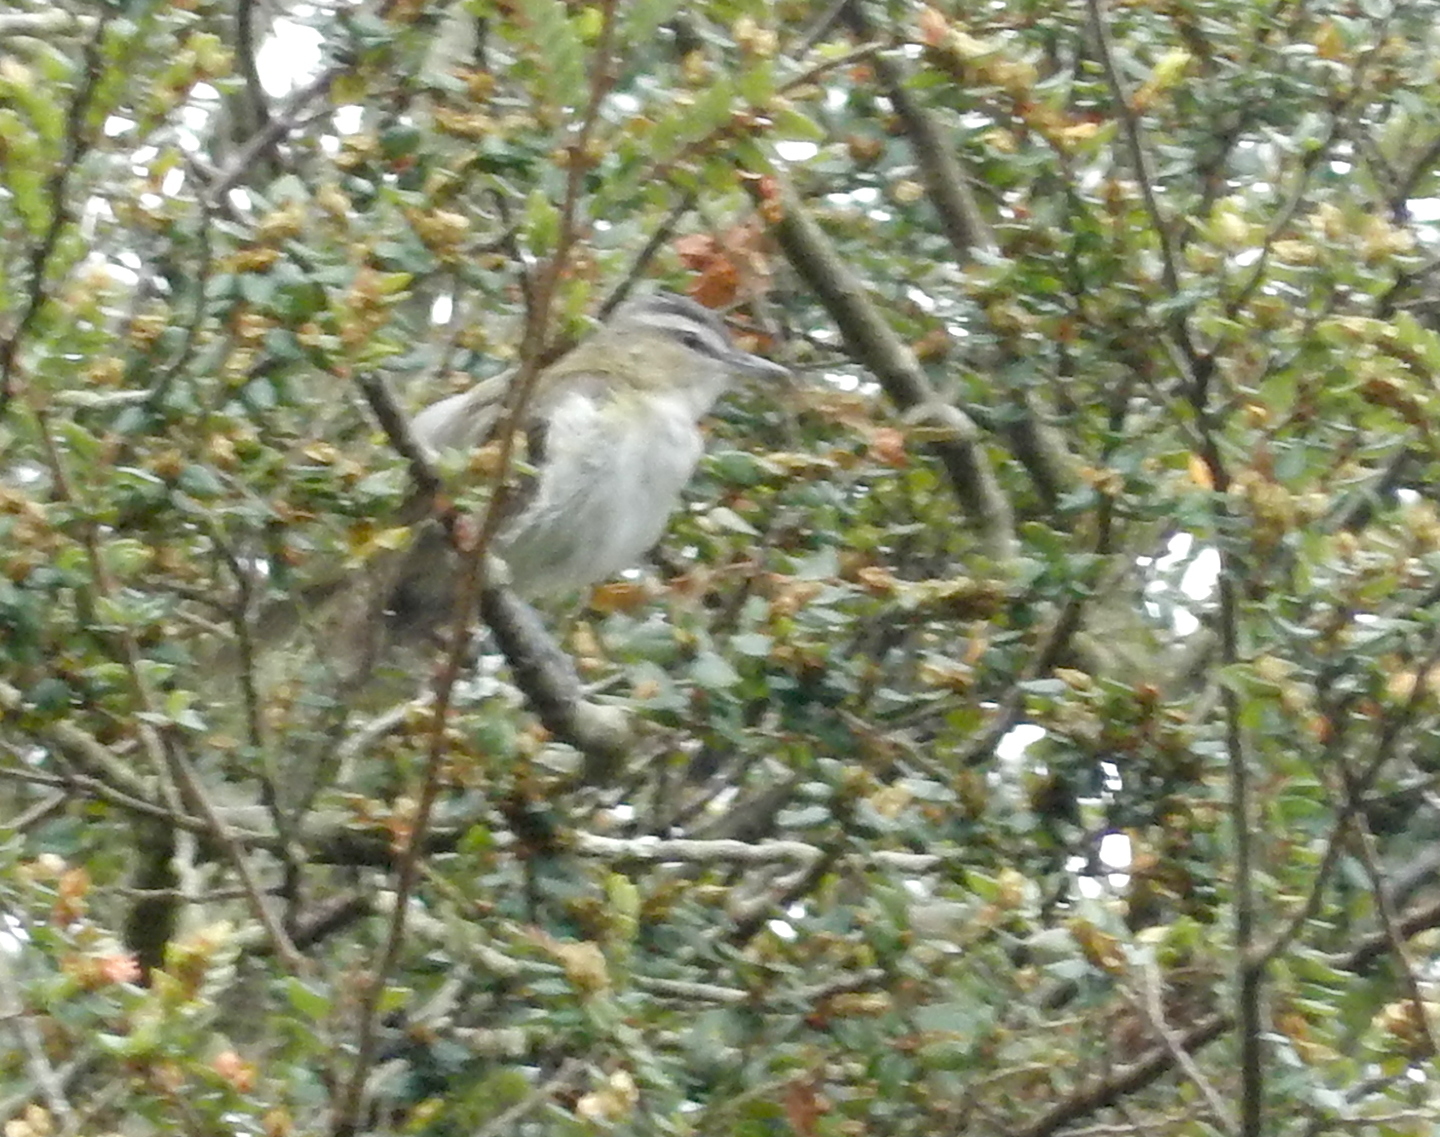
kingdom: Animalia
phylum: Chordata
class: Aves
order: Passeriformes
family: Vireonidae
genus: Vireo
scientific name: Vireo olivaceus
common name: Red-eyed vireo
